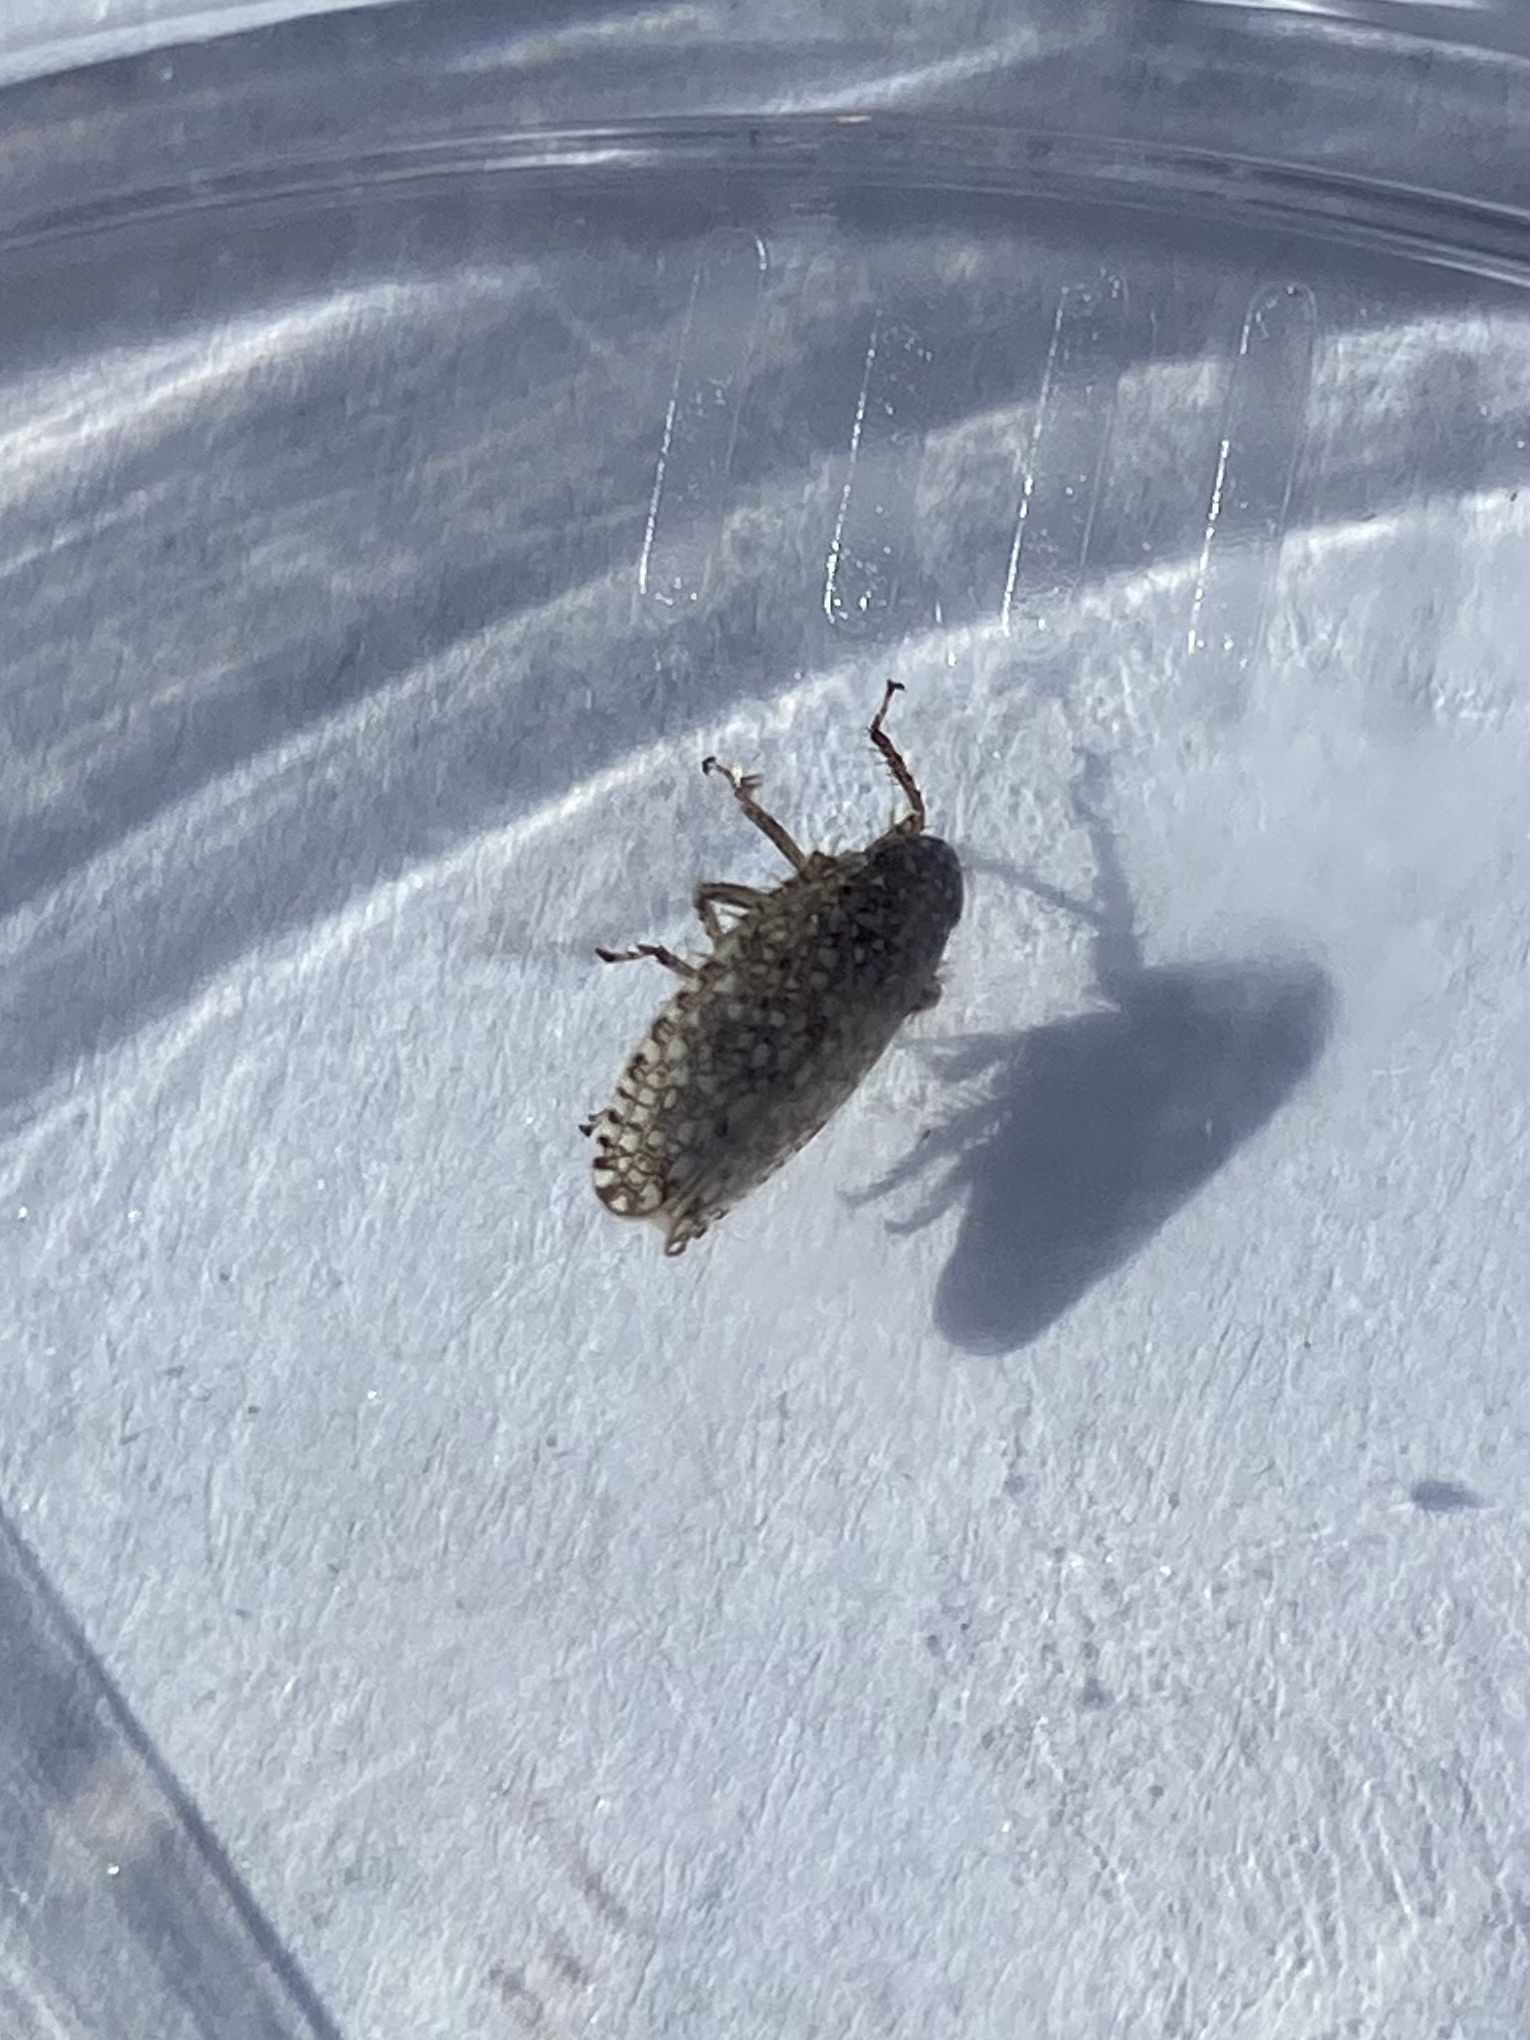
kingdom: Animalia
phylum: Arthropoda
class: Insecta
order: Hemiptera
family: Cicadellidae
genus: Texananus
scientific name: Texananus
